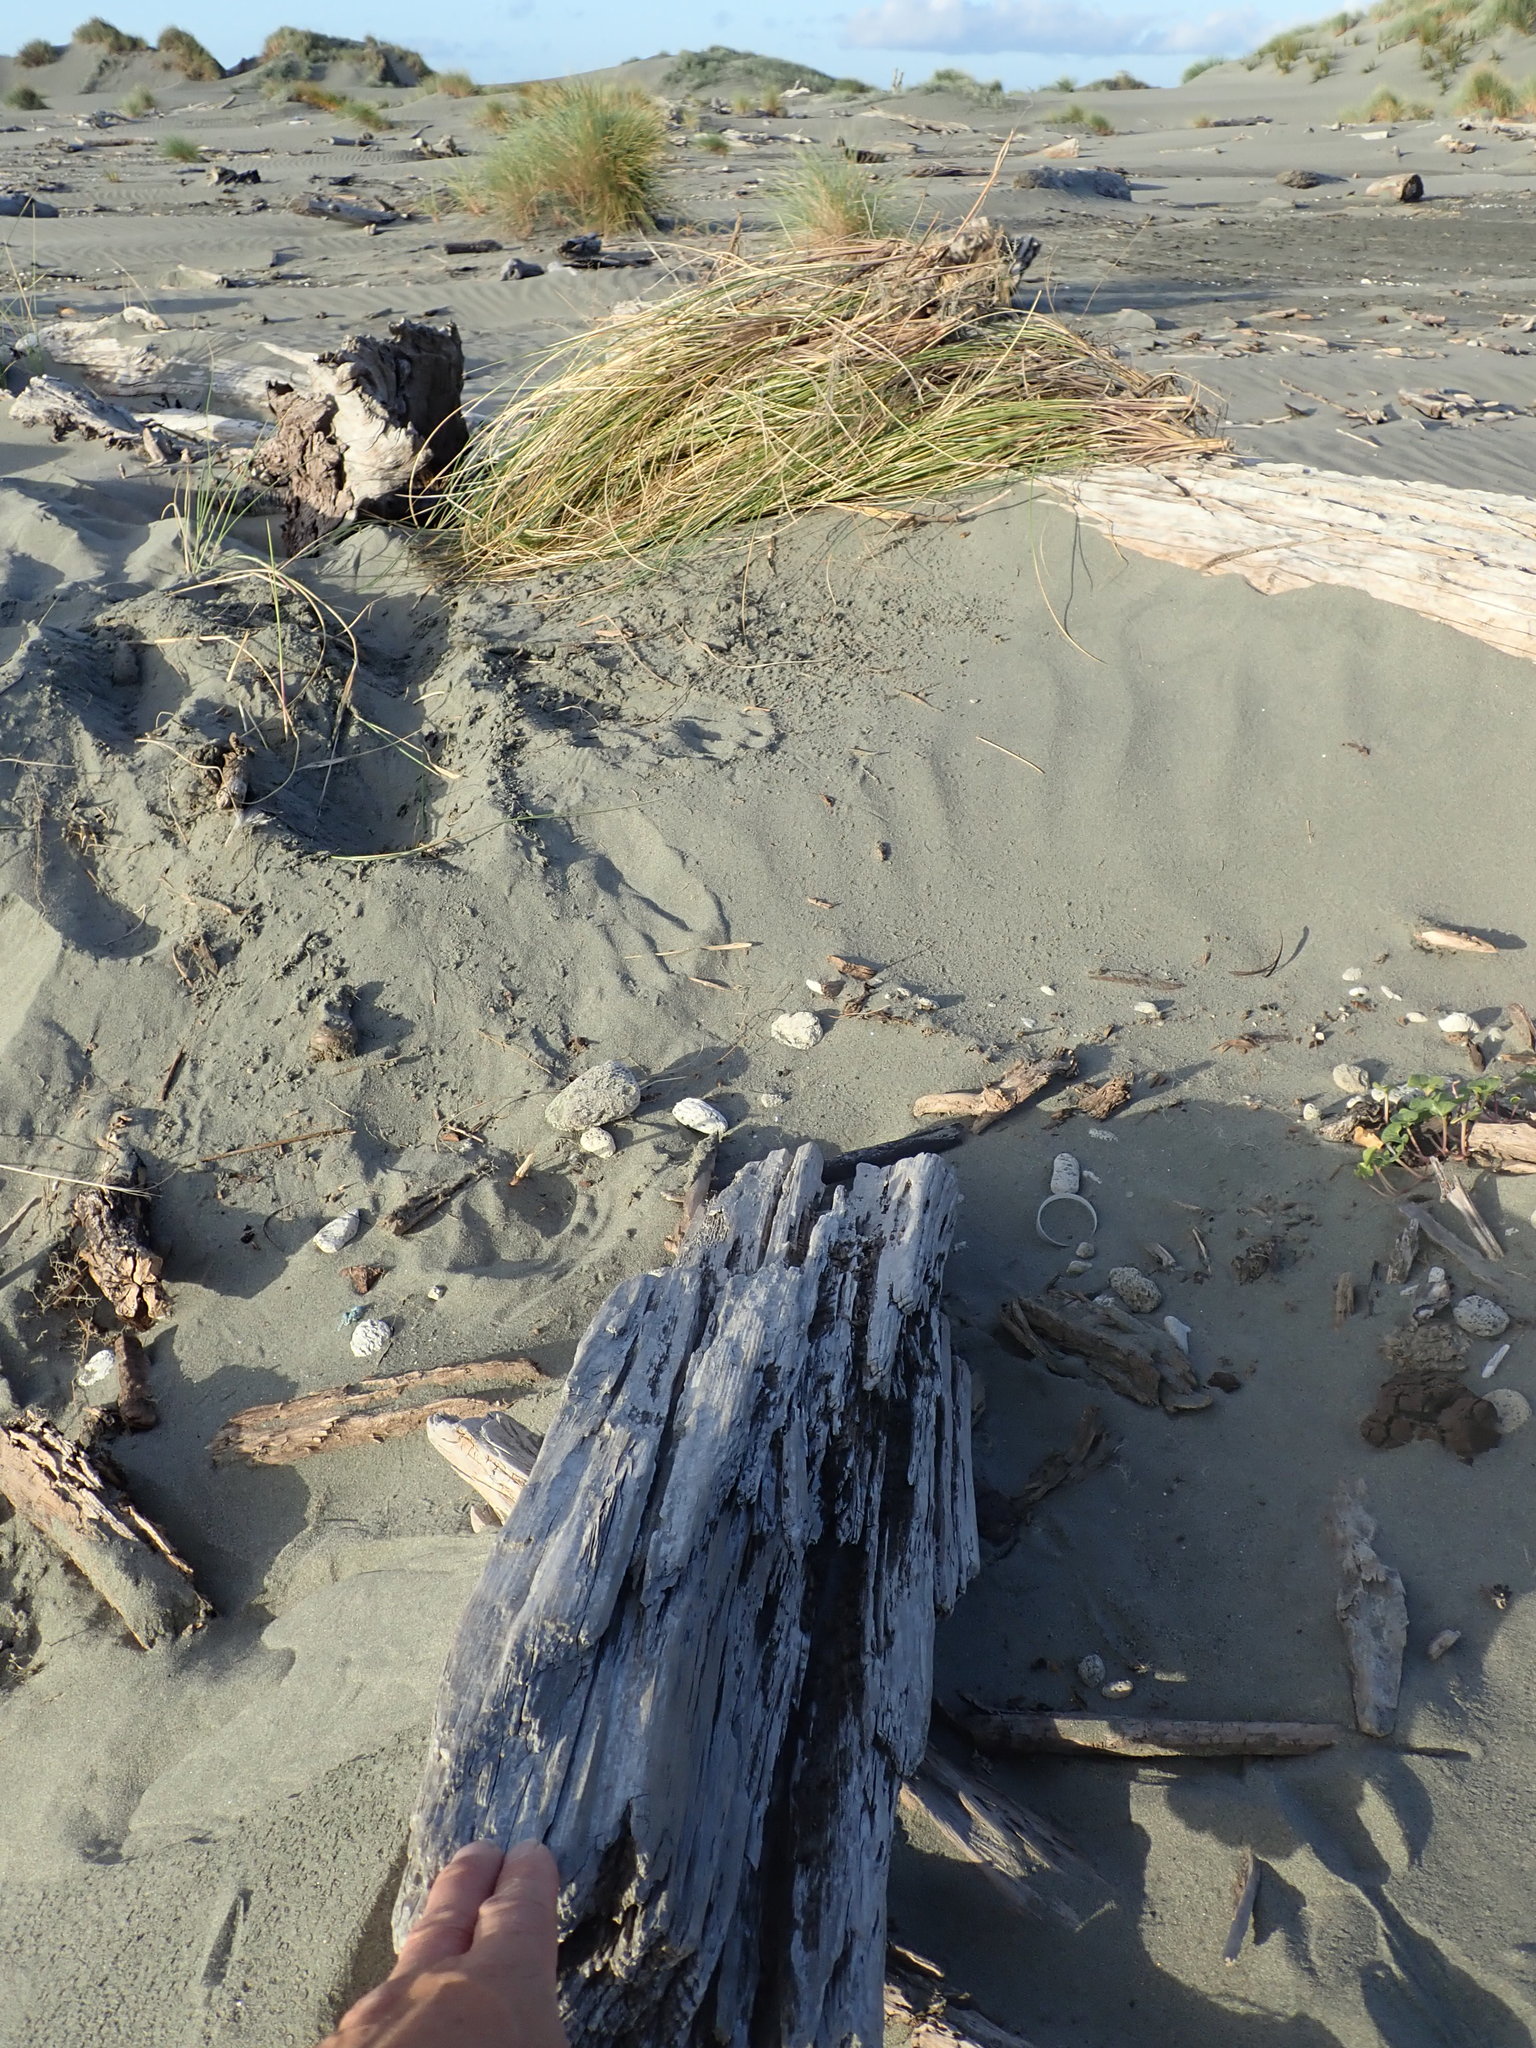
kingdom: Animalia
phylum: Arthropoda
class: Insecta
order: Dermaptera
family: Anisolabididae
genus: Anisolabis
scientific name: Anisolabis littorea
